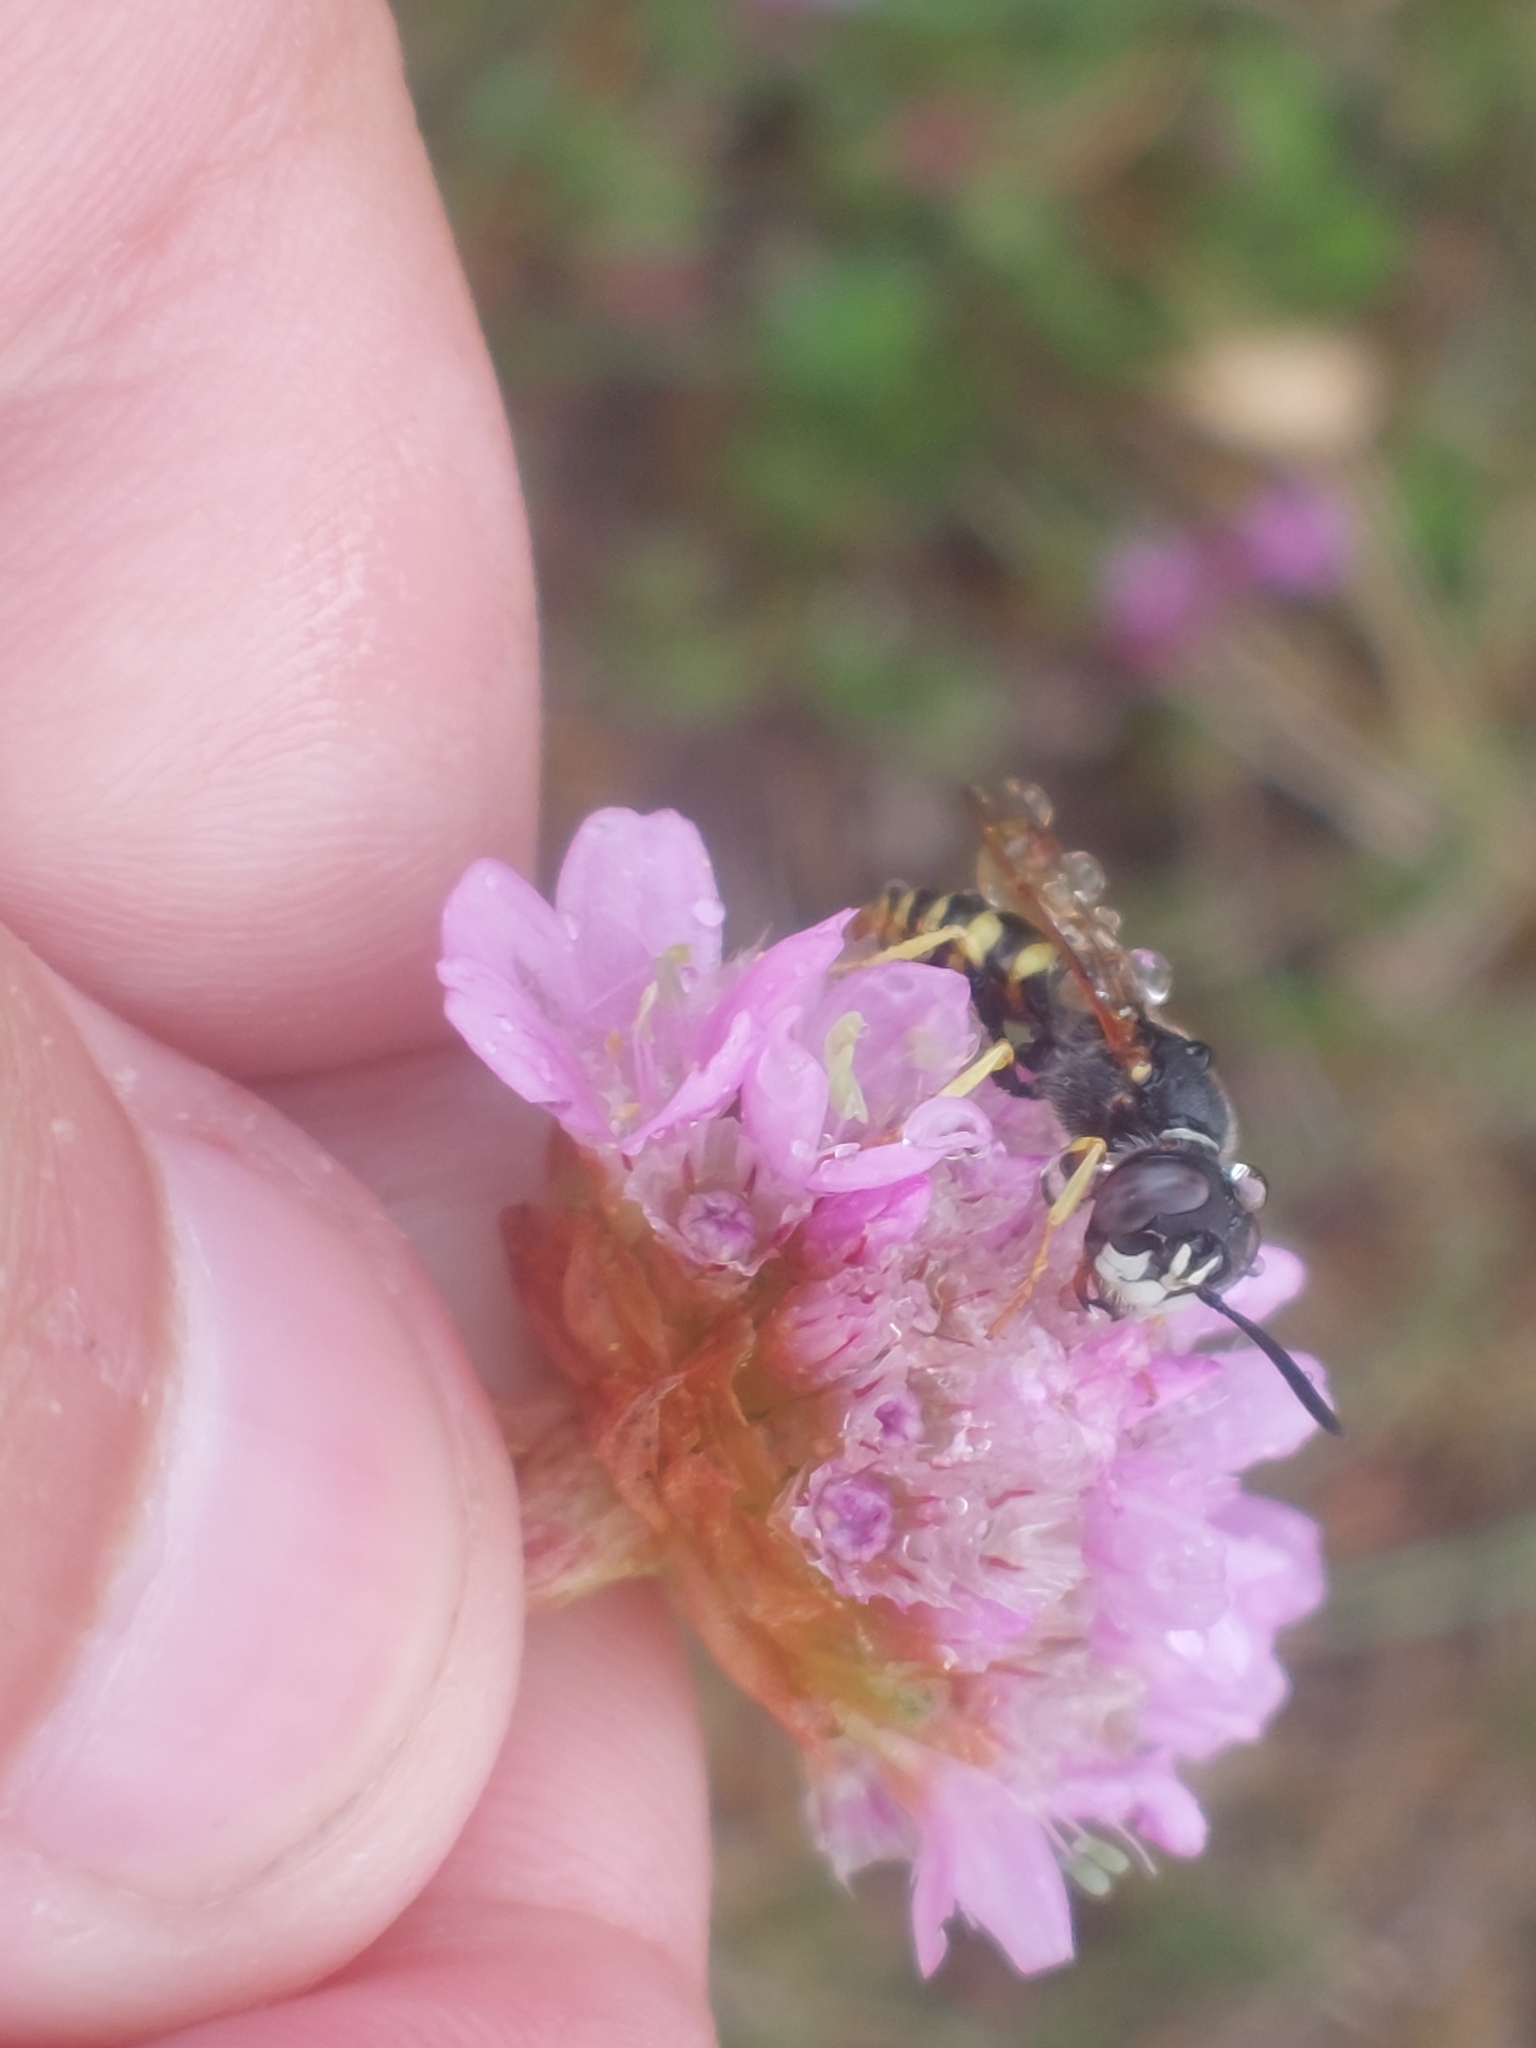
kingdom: Animalia
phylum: Arthropoda
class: Insecta
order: Hymenoptera
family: Crabronidae
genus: Philanthus
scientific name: Philanthus triangulum
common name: Bee wolf
